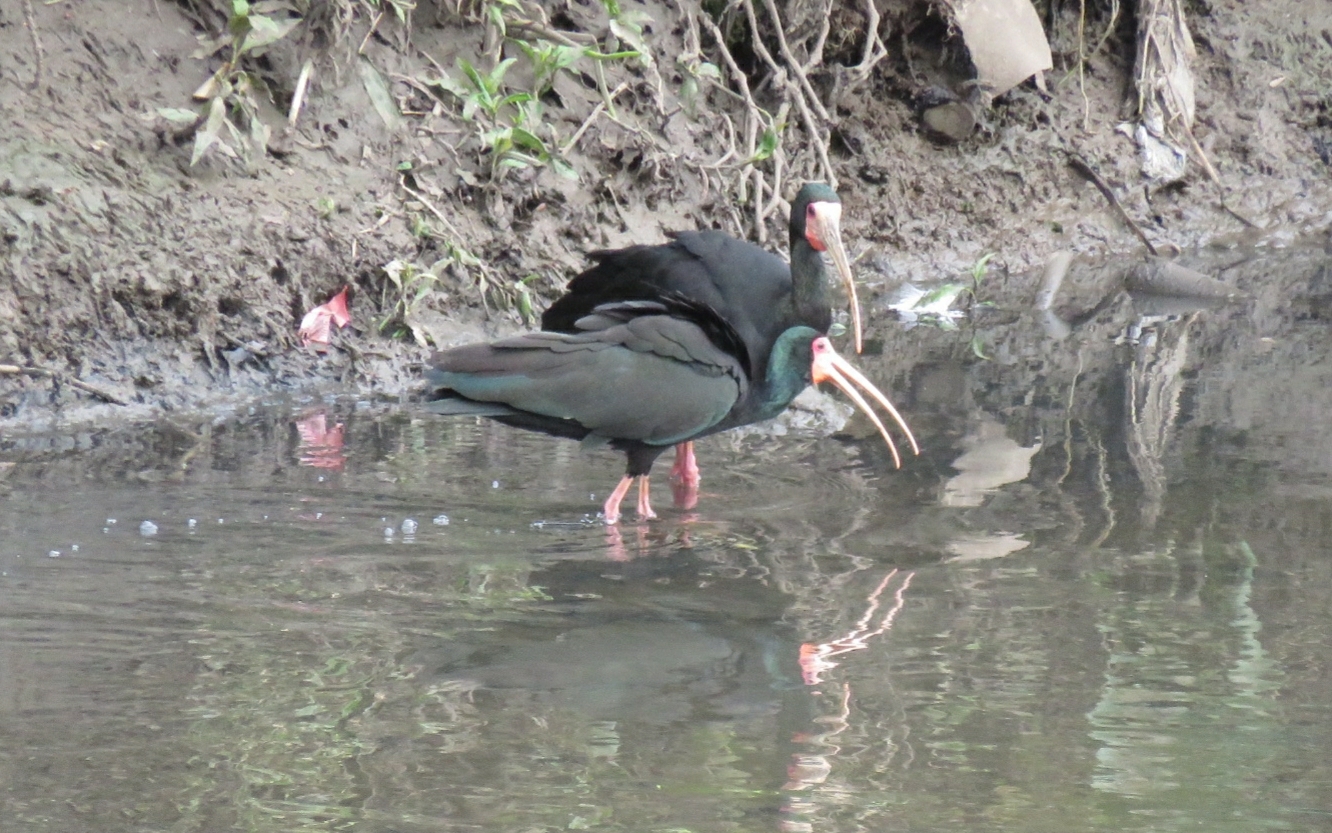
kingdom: Animalia
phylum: Chordata
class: Aves
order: Pelecaniformes
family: Threskiornithidae
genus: Phimosus
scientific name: Phimosus infuscatus
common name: Bare-faced ibis
